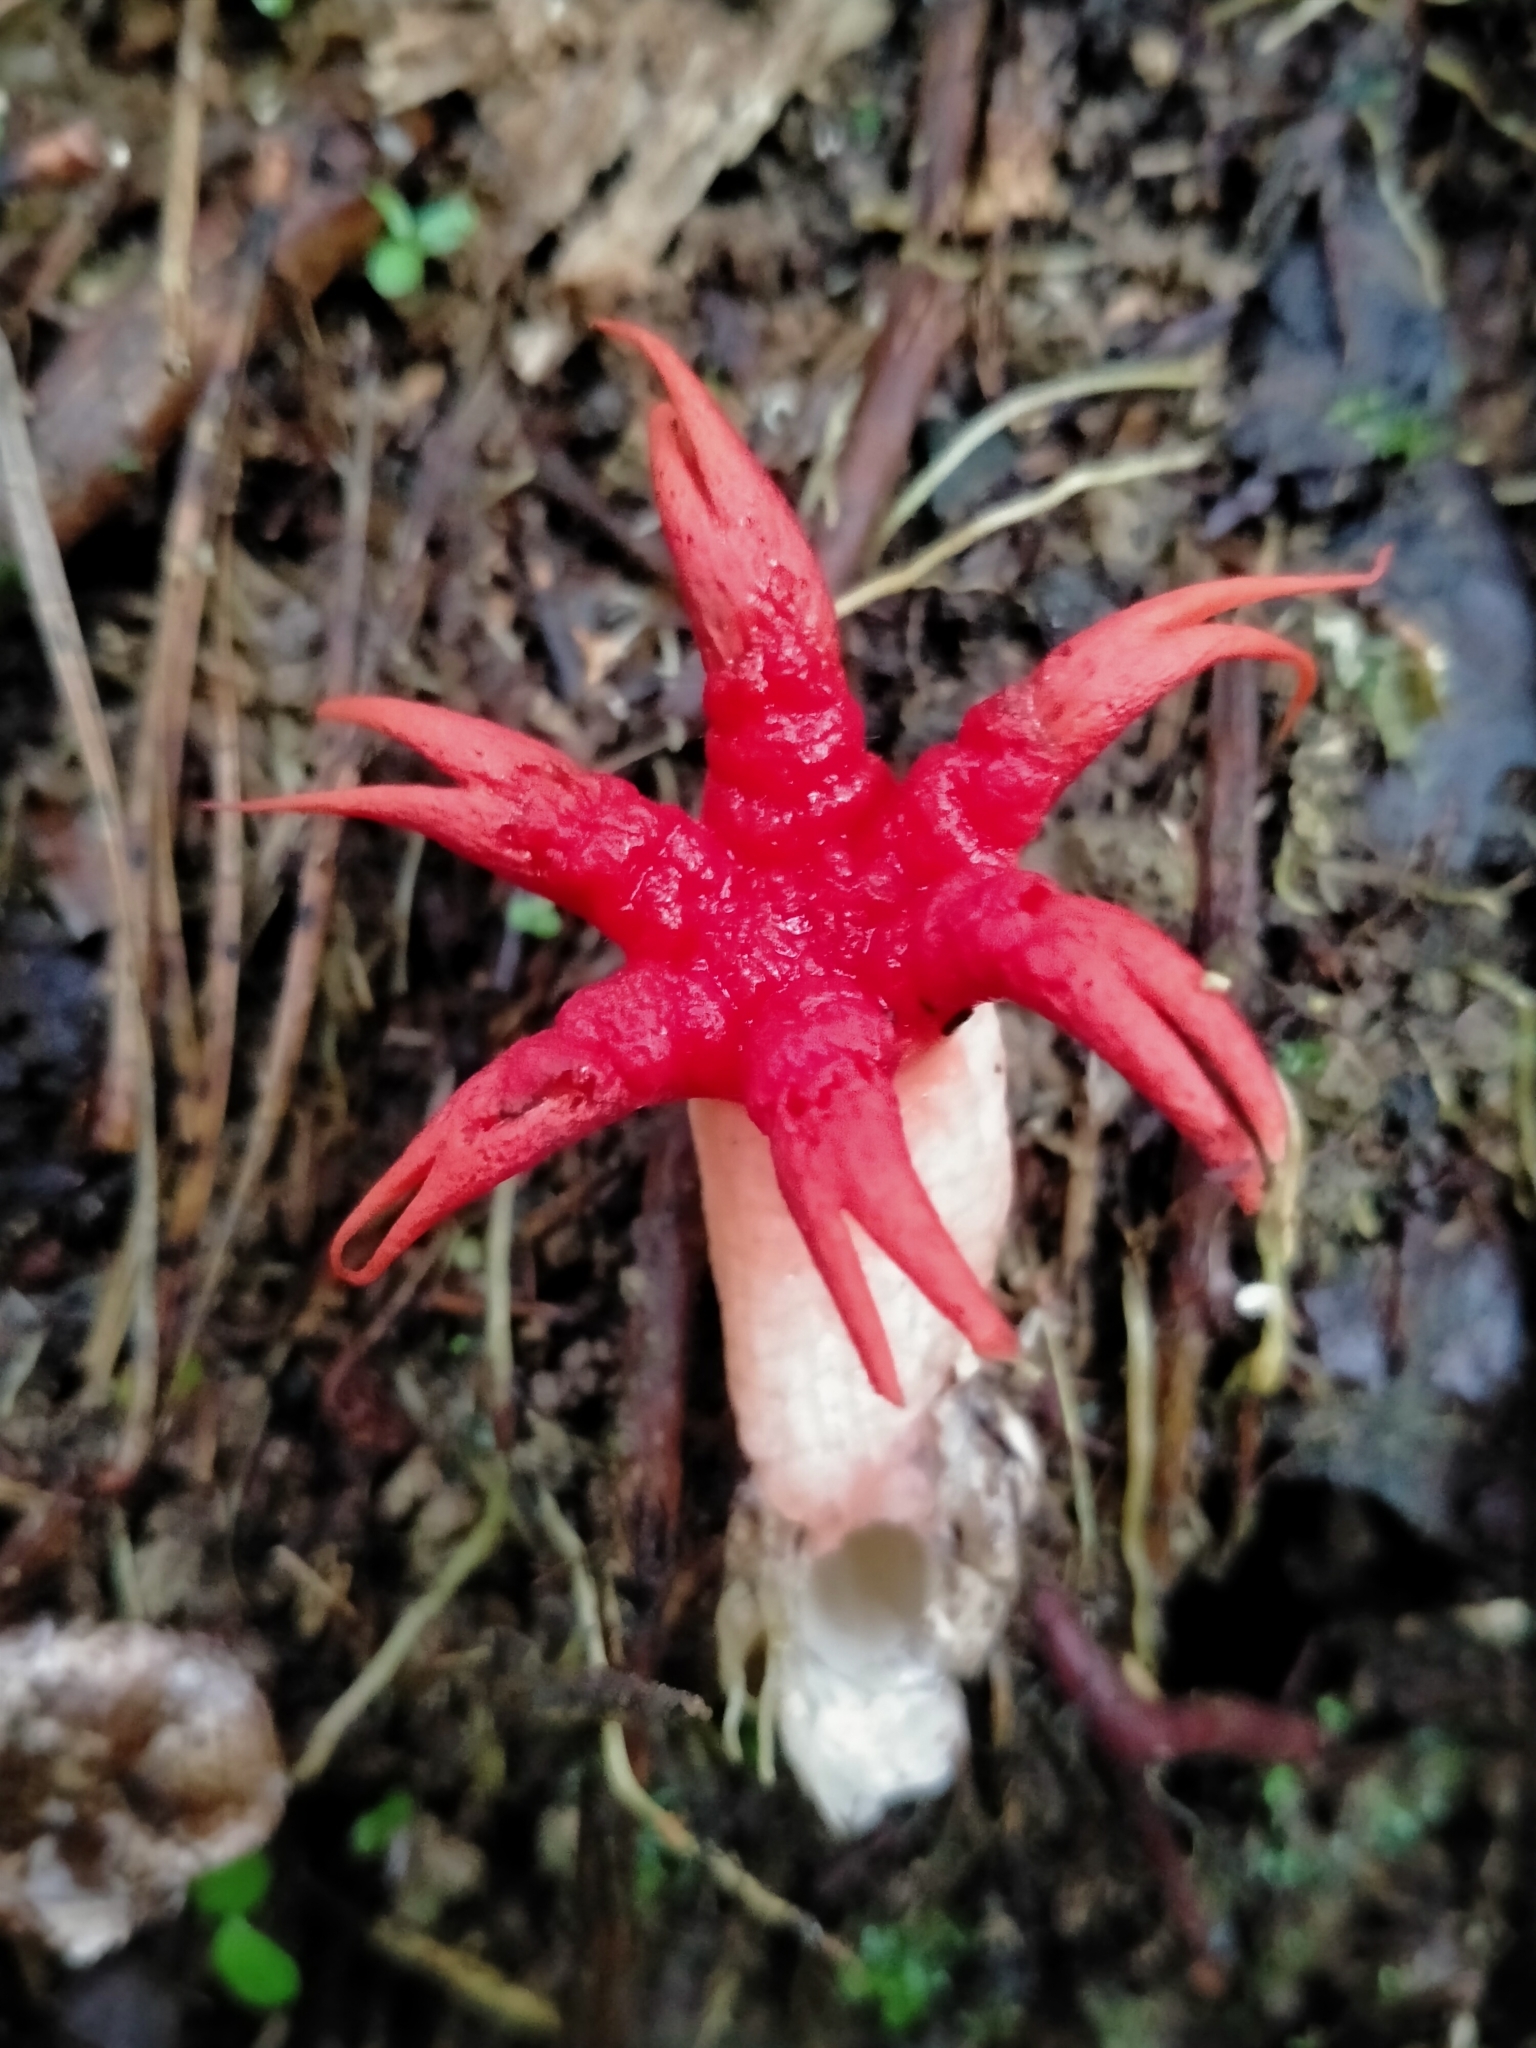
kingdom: Fungi
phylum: Basidiomycota
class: Agaricomycetes
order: Phallales
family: Phallaceae
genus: Aseroe
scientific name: Aseroe rubra
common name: Starfish fungus
